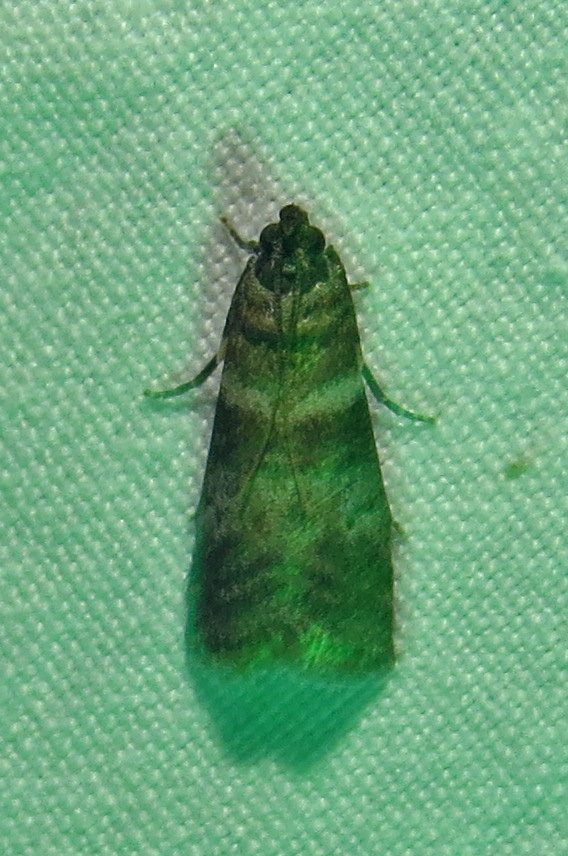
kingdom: Animalia
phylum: Arthropoda
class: Insecta
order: Lepidoptera
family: Pyralidae
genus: Sciota
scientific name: Sciota uvinella
